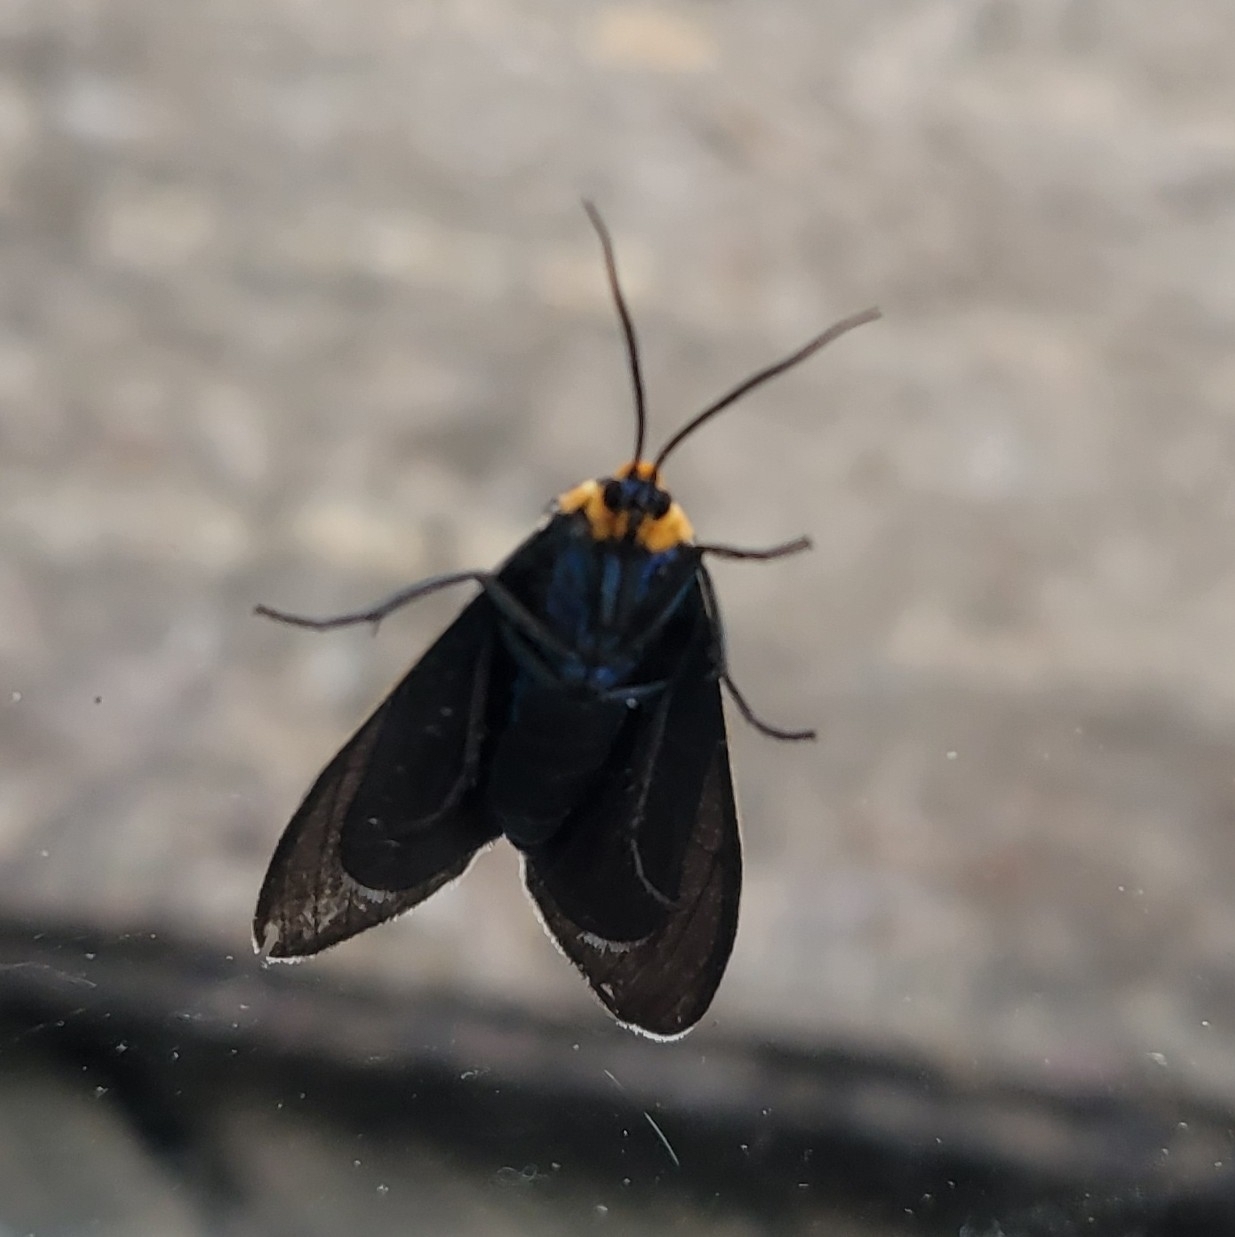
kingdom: Animalia
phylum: Arthropoda
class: Insecta
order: Lepidoptera
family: Erebidae
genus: Ctenucha
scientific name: Ctenucha virginica
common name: Virginia ctenucha moth
